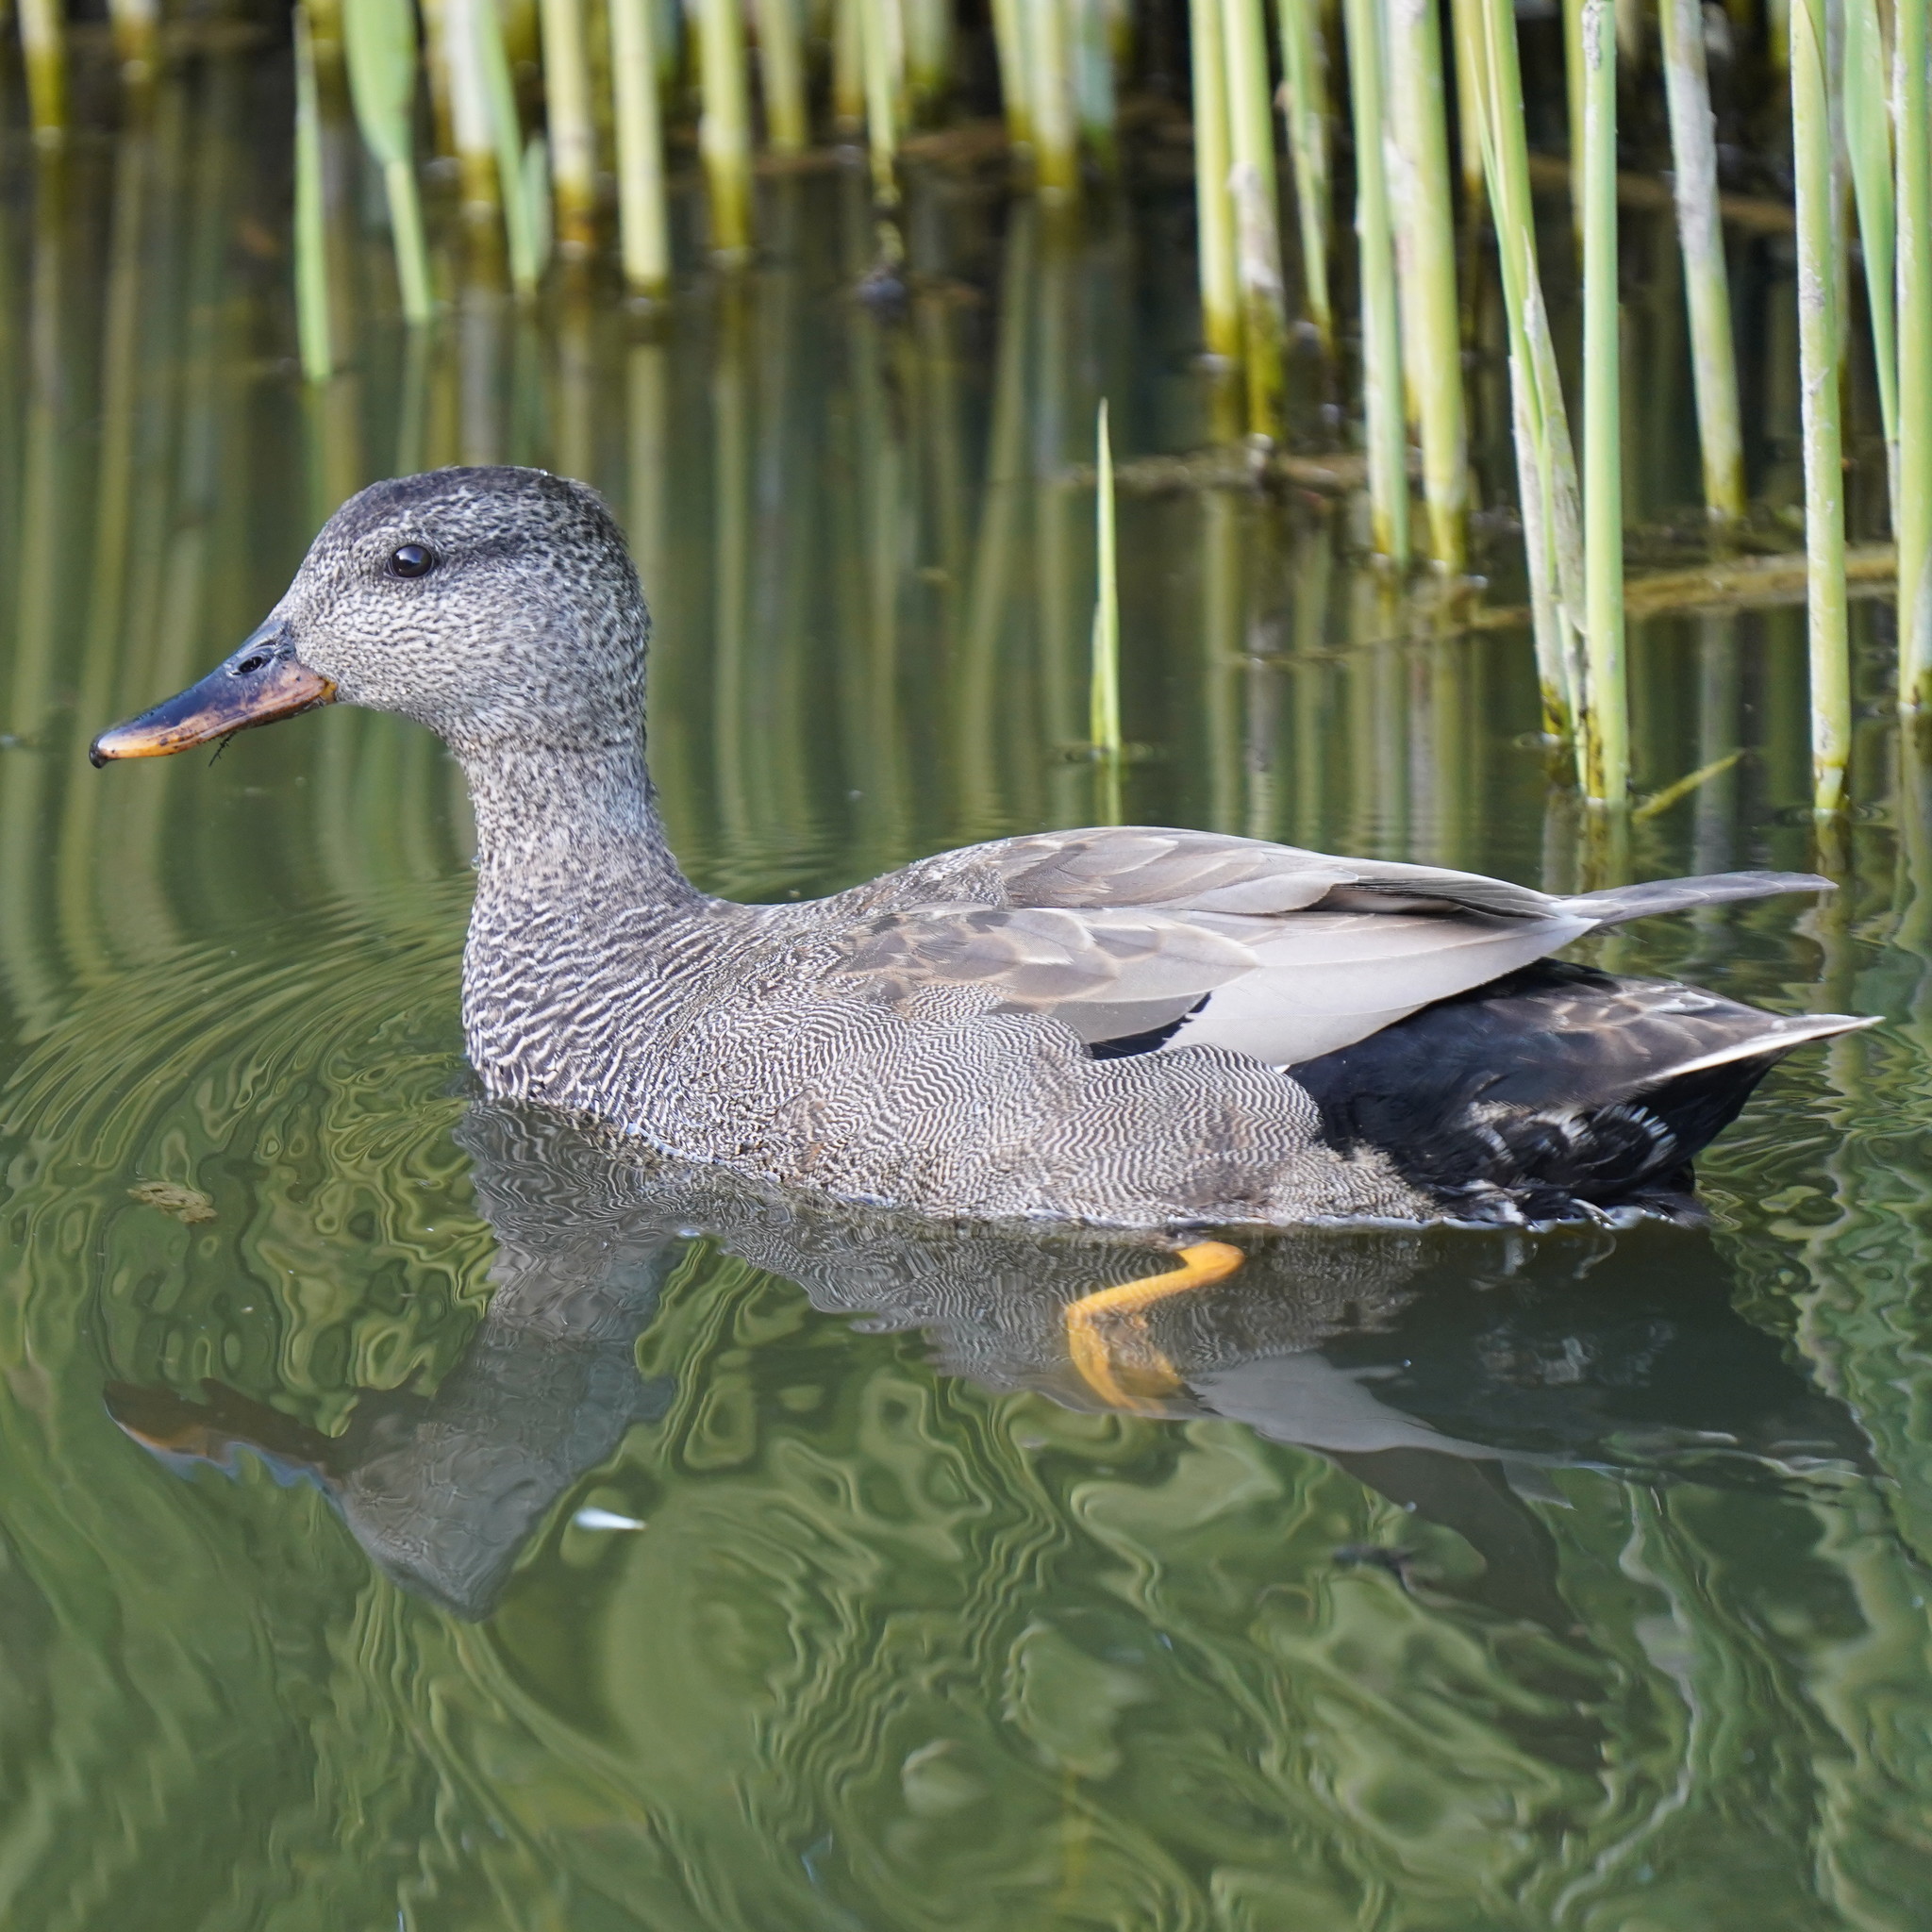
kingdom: Animalia
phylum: Chordata
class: Aves
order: Anseriformes
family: Anatidae
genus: Mareca
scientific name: Mareca strepera
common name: Gadwall
